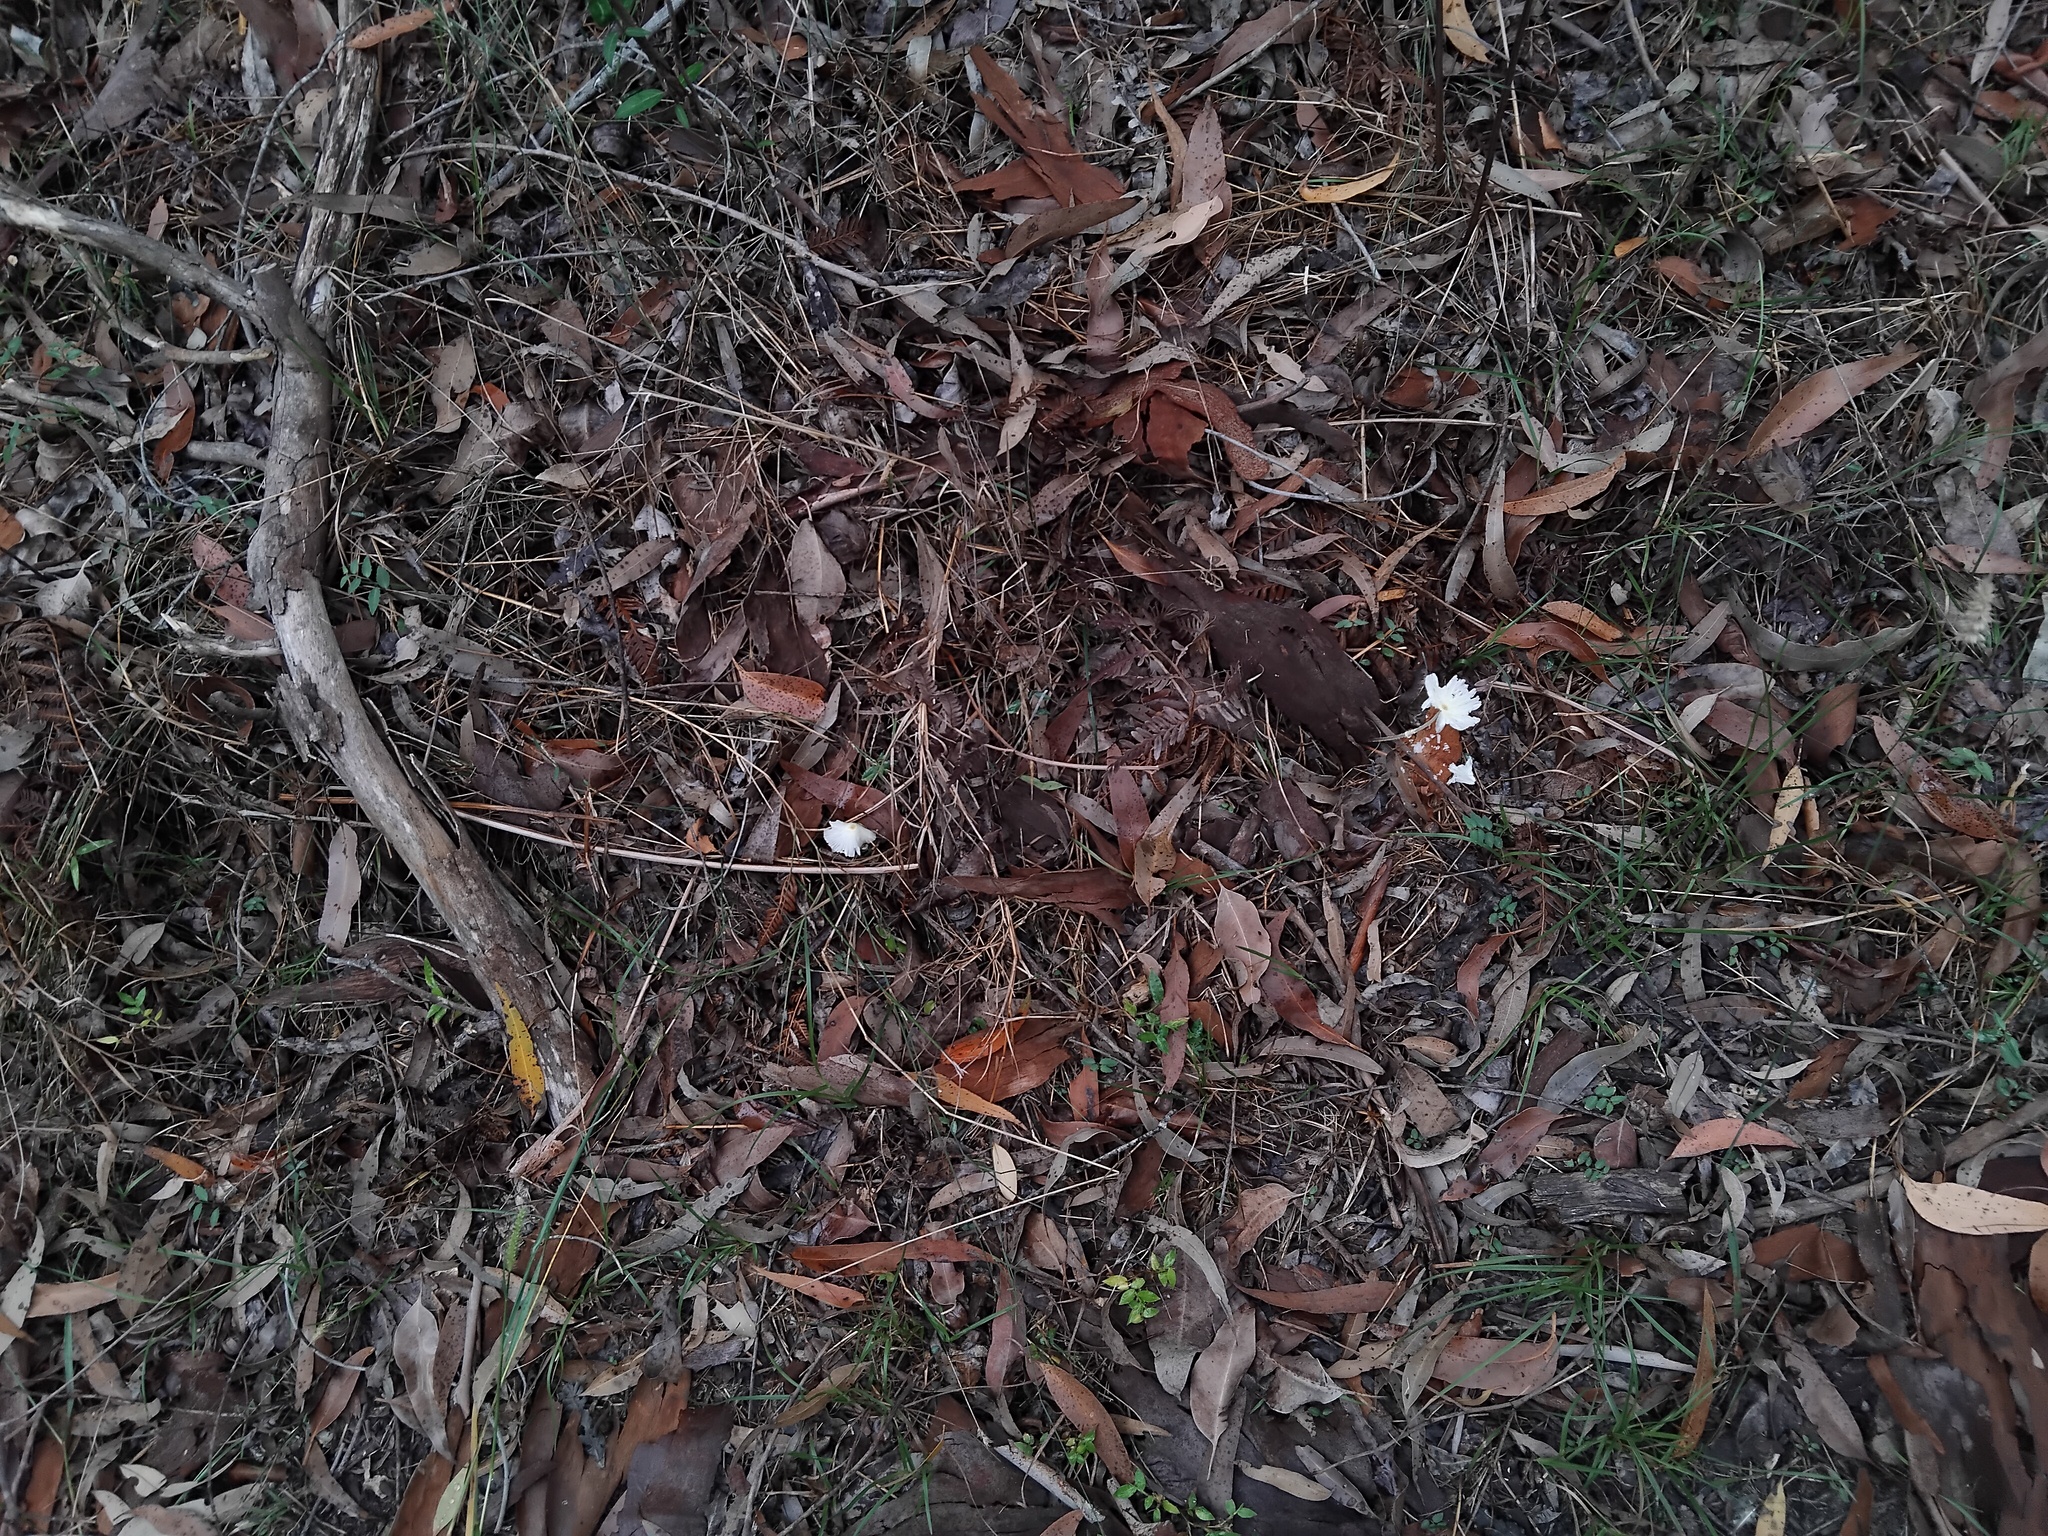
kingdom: Fungi
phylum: Basidiomycota
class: Agaricomycetes
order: Agaricales
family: Agaricaceae
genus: Leucocoprinus
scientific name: Leucocoprinus fragilissimus
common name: Fragile dapperling
